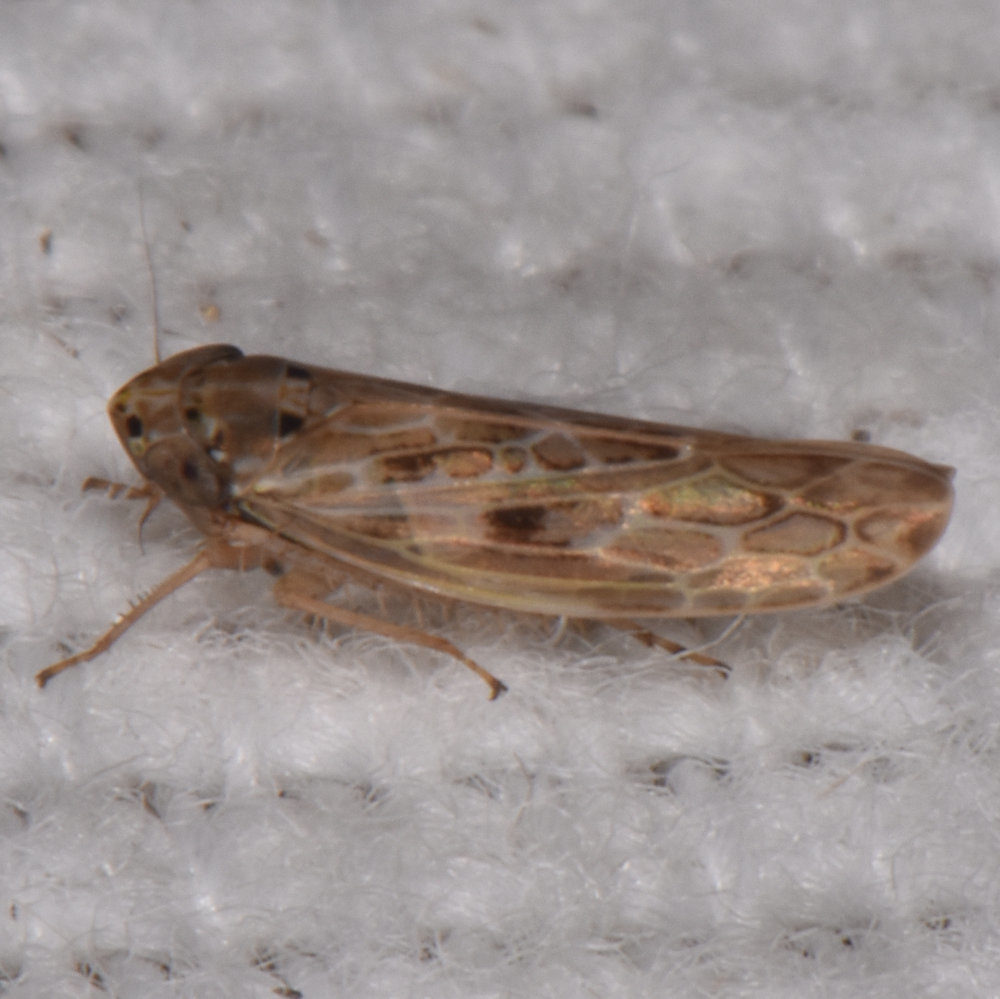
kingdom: Animalia
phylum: Arthropoda
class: Insecta
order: Hemiptera
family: Cicadellidae
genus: Endria
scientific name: Endria inimicus
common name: Painted leafhopper
